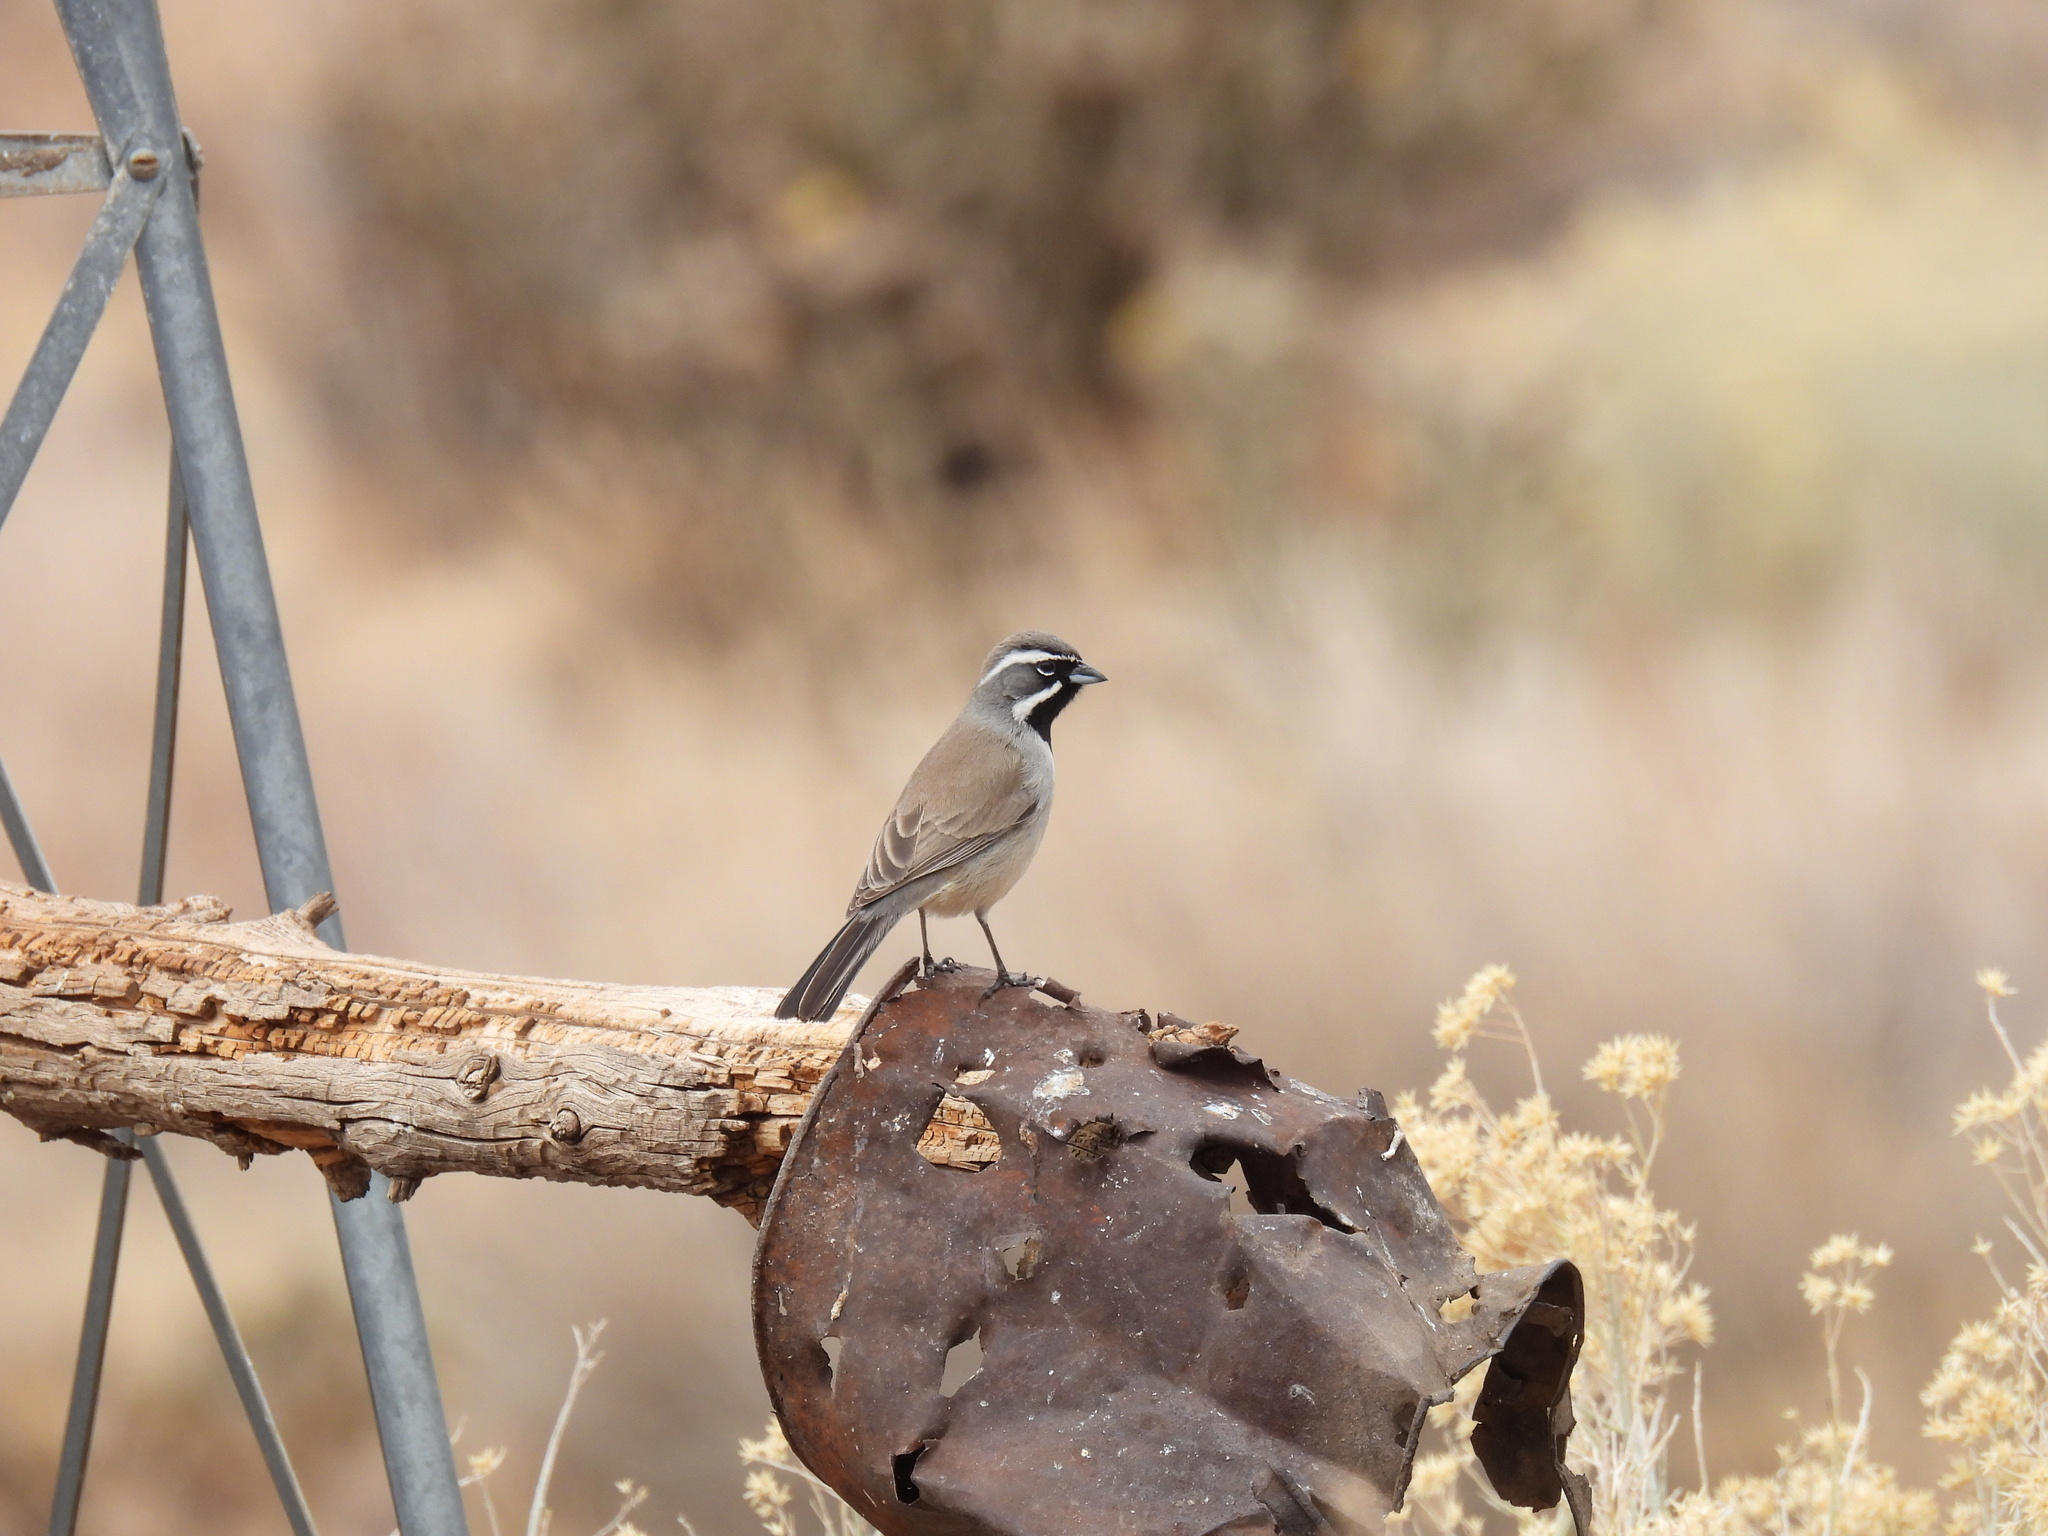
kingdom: Animalia
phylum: Chordata
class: Aves
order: Passeriformes
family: Passerellidae
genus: Amphispiza
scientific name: Amphispiza bilineata
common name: Black-throated sparrow
